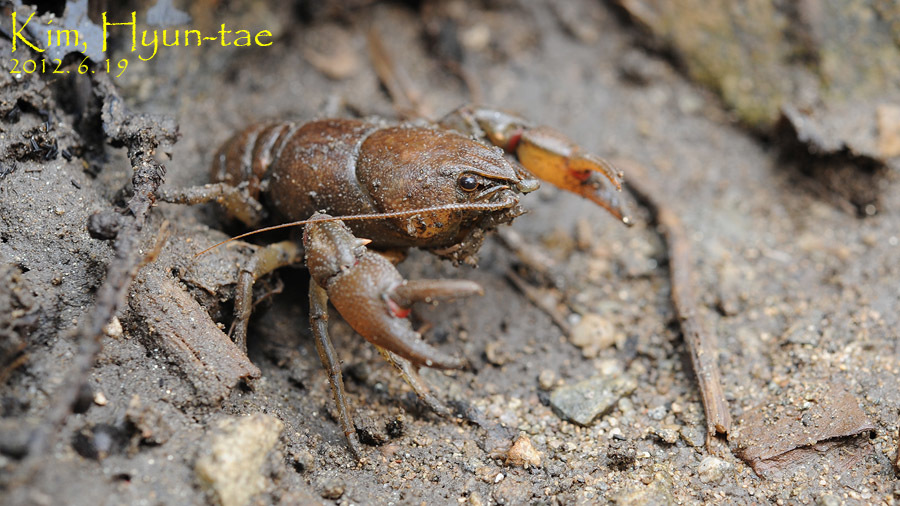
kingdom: Animalia
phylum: Arthropoda
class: Malacostraca
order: Decapoda
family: Cambaroididae
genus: Cambaroides
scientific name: Cambaroides similis
